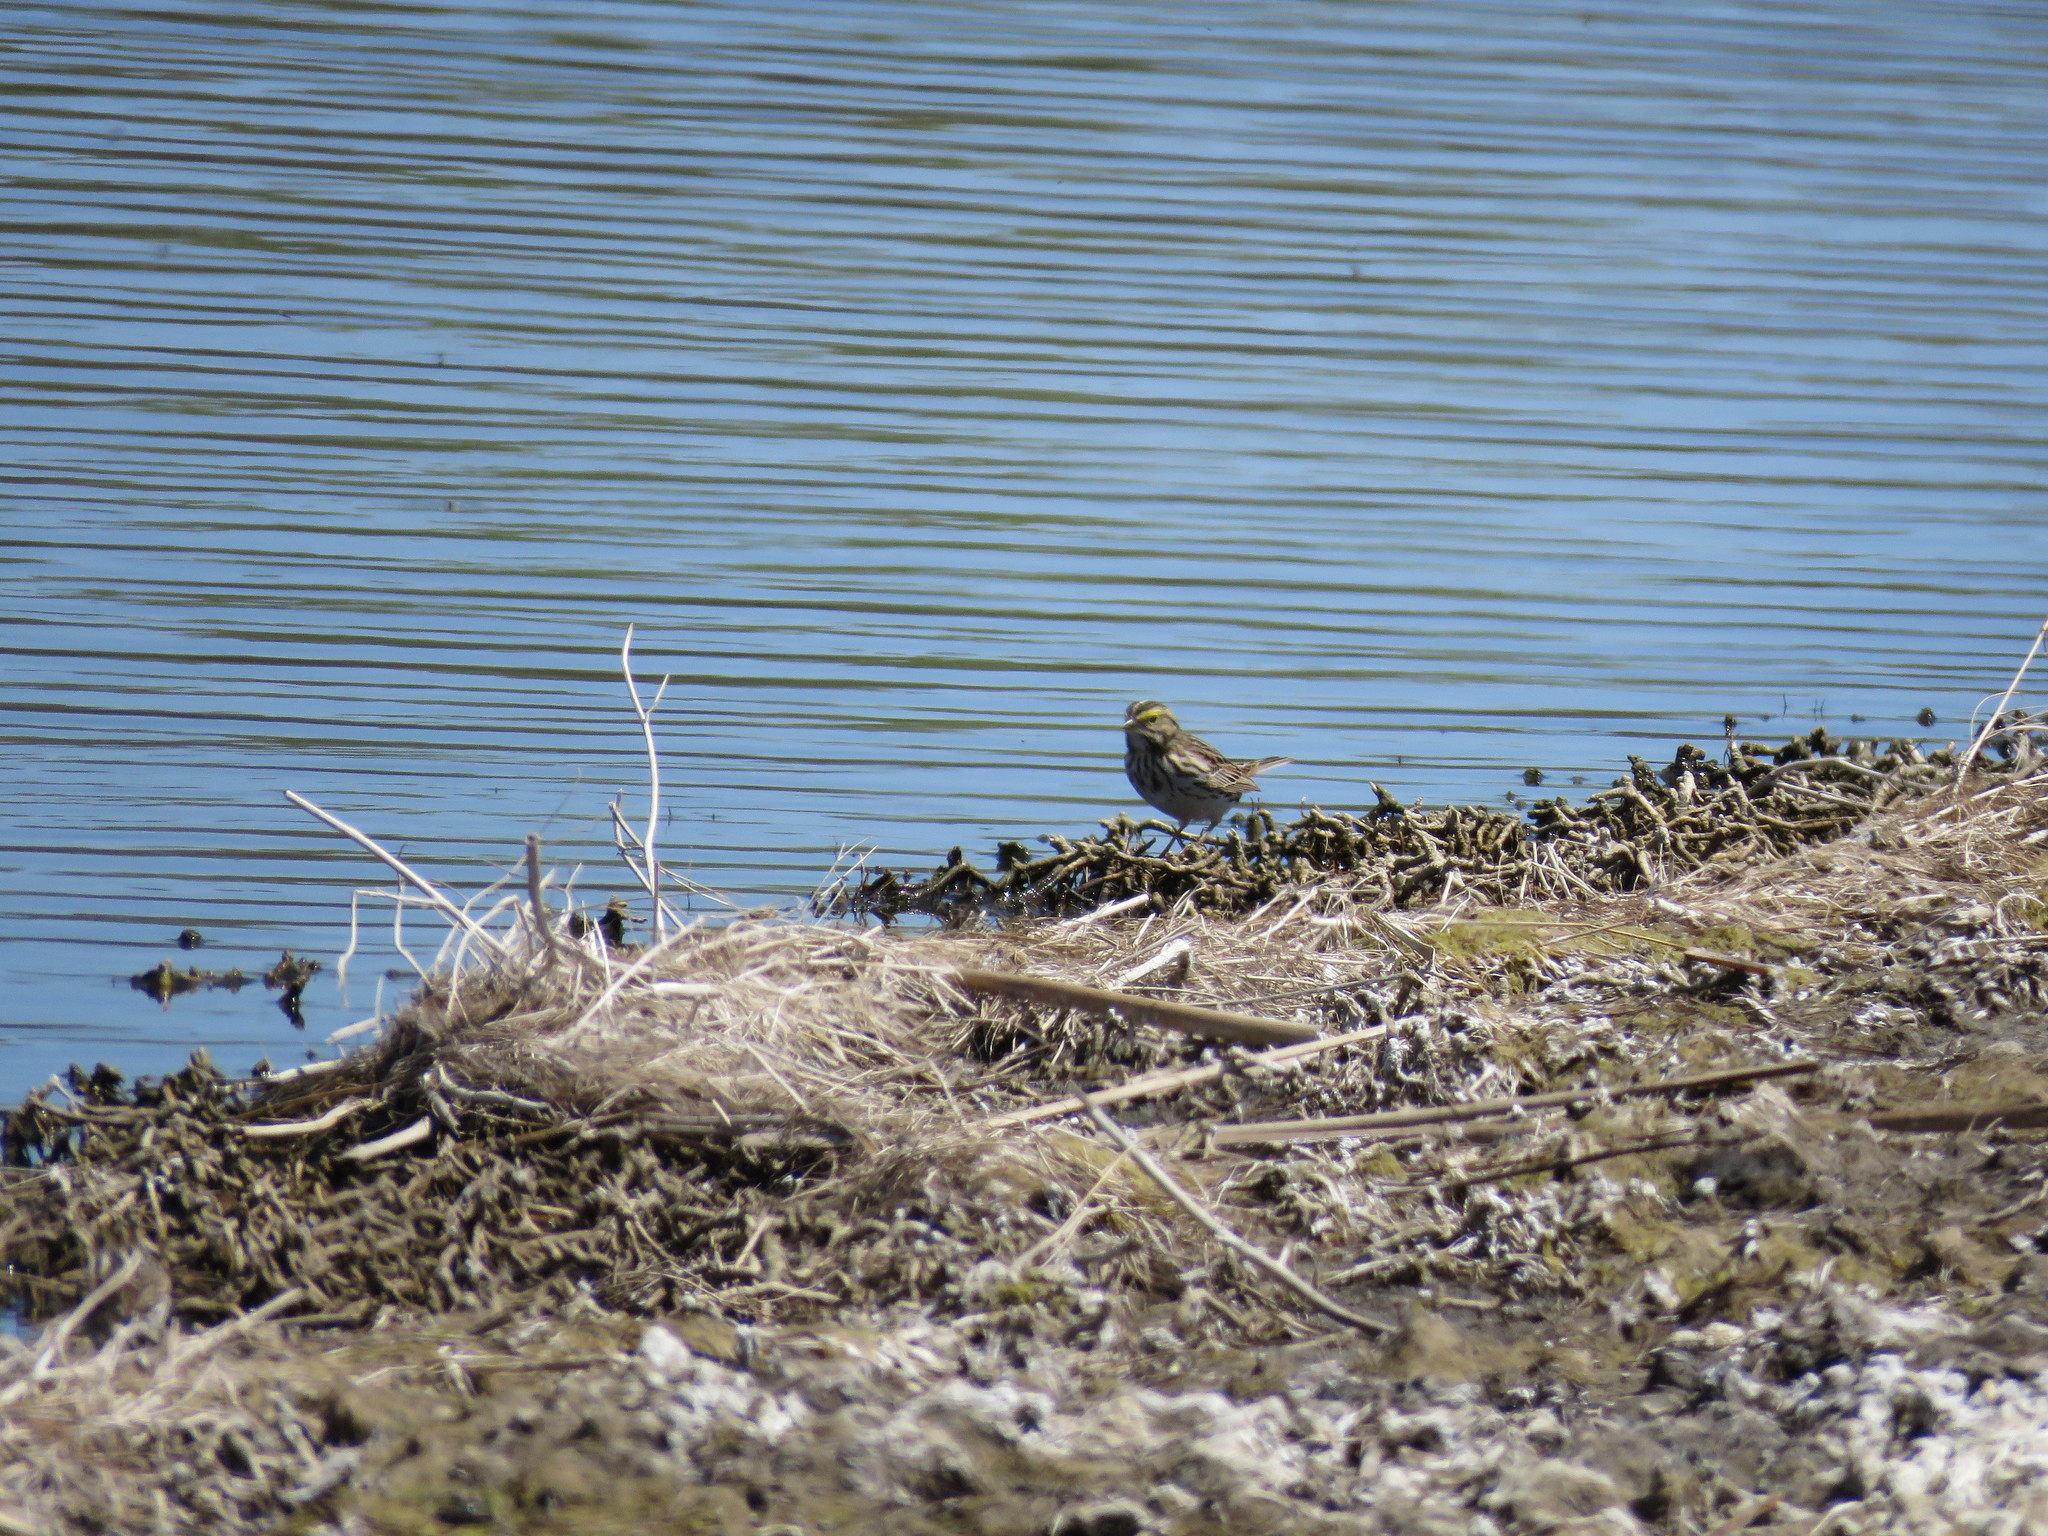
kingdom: Animalia
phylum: Chordata
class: Aves
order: Passeriformes
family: Passerellidae
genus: Passerculus
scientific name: Passerculus sandwichensis
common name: Savannah sparrow
